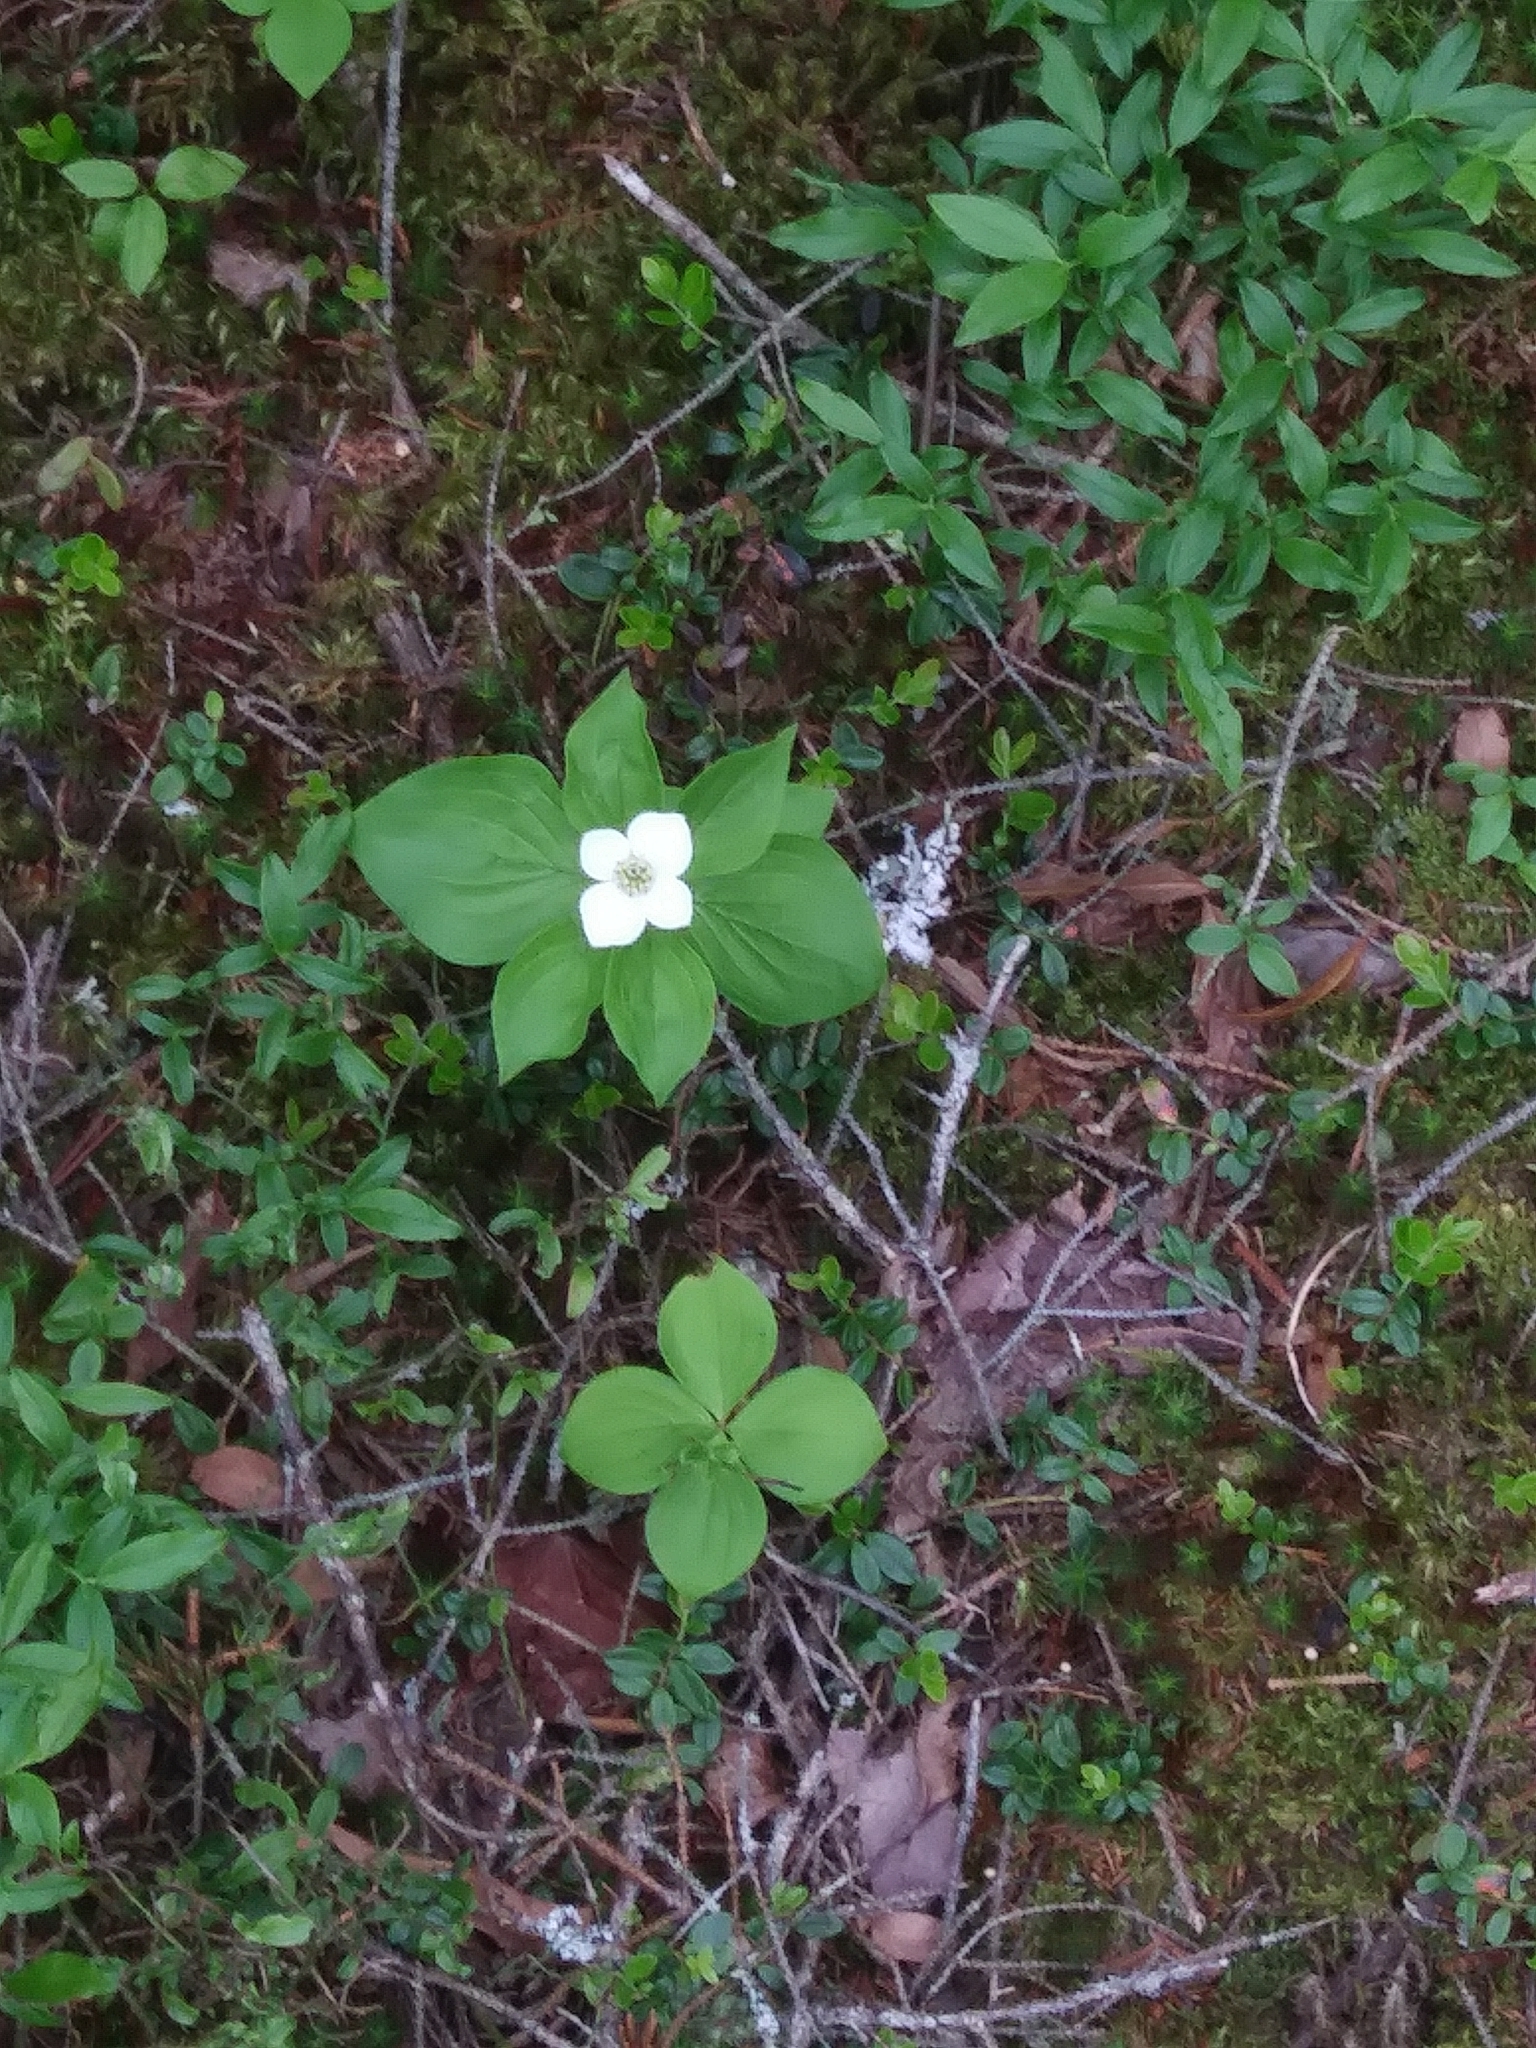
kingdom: Plantae
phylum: Tracheophyta
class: Magnoliopsida
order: Cornales
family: Cornaceae
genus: Cornus
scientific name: Cornus canadensis
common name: Creeping dogwood
